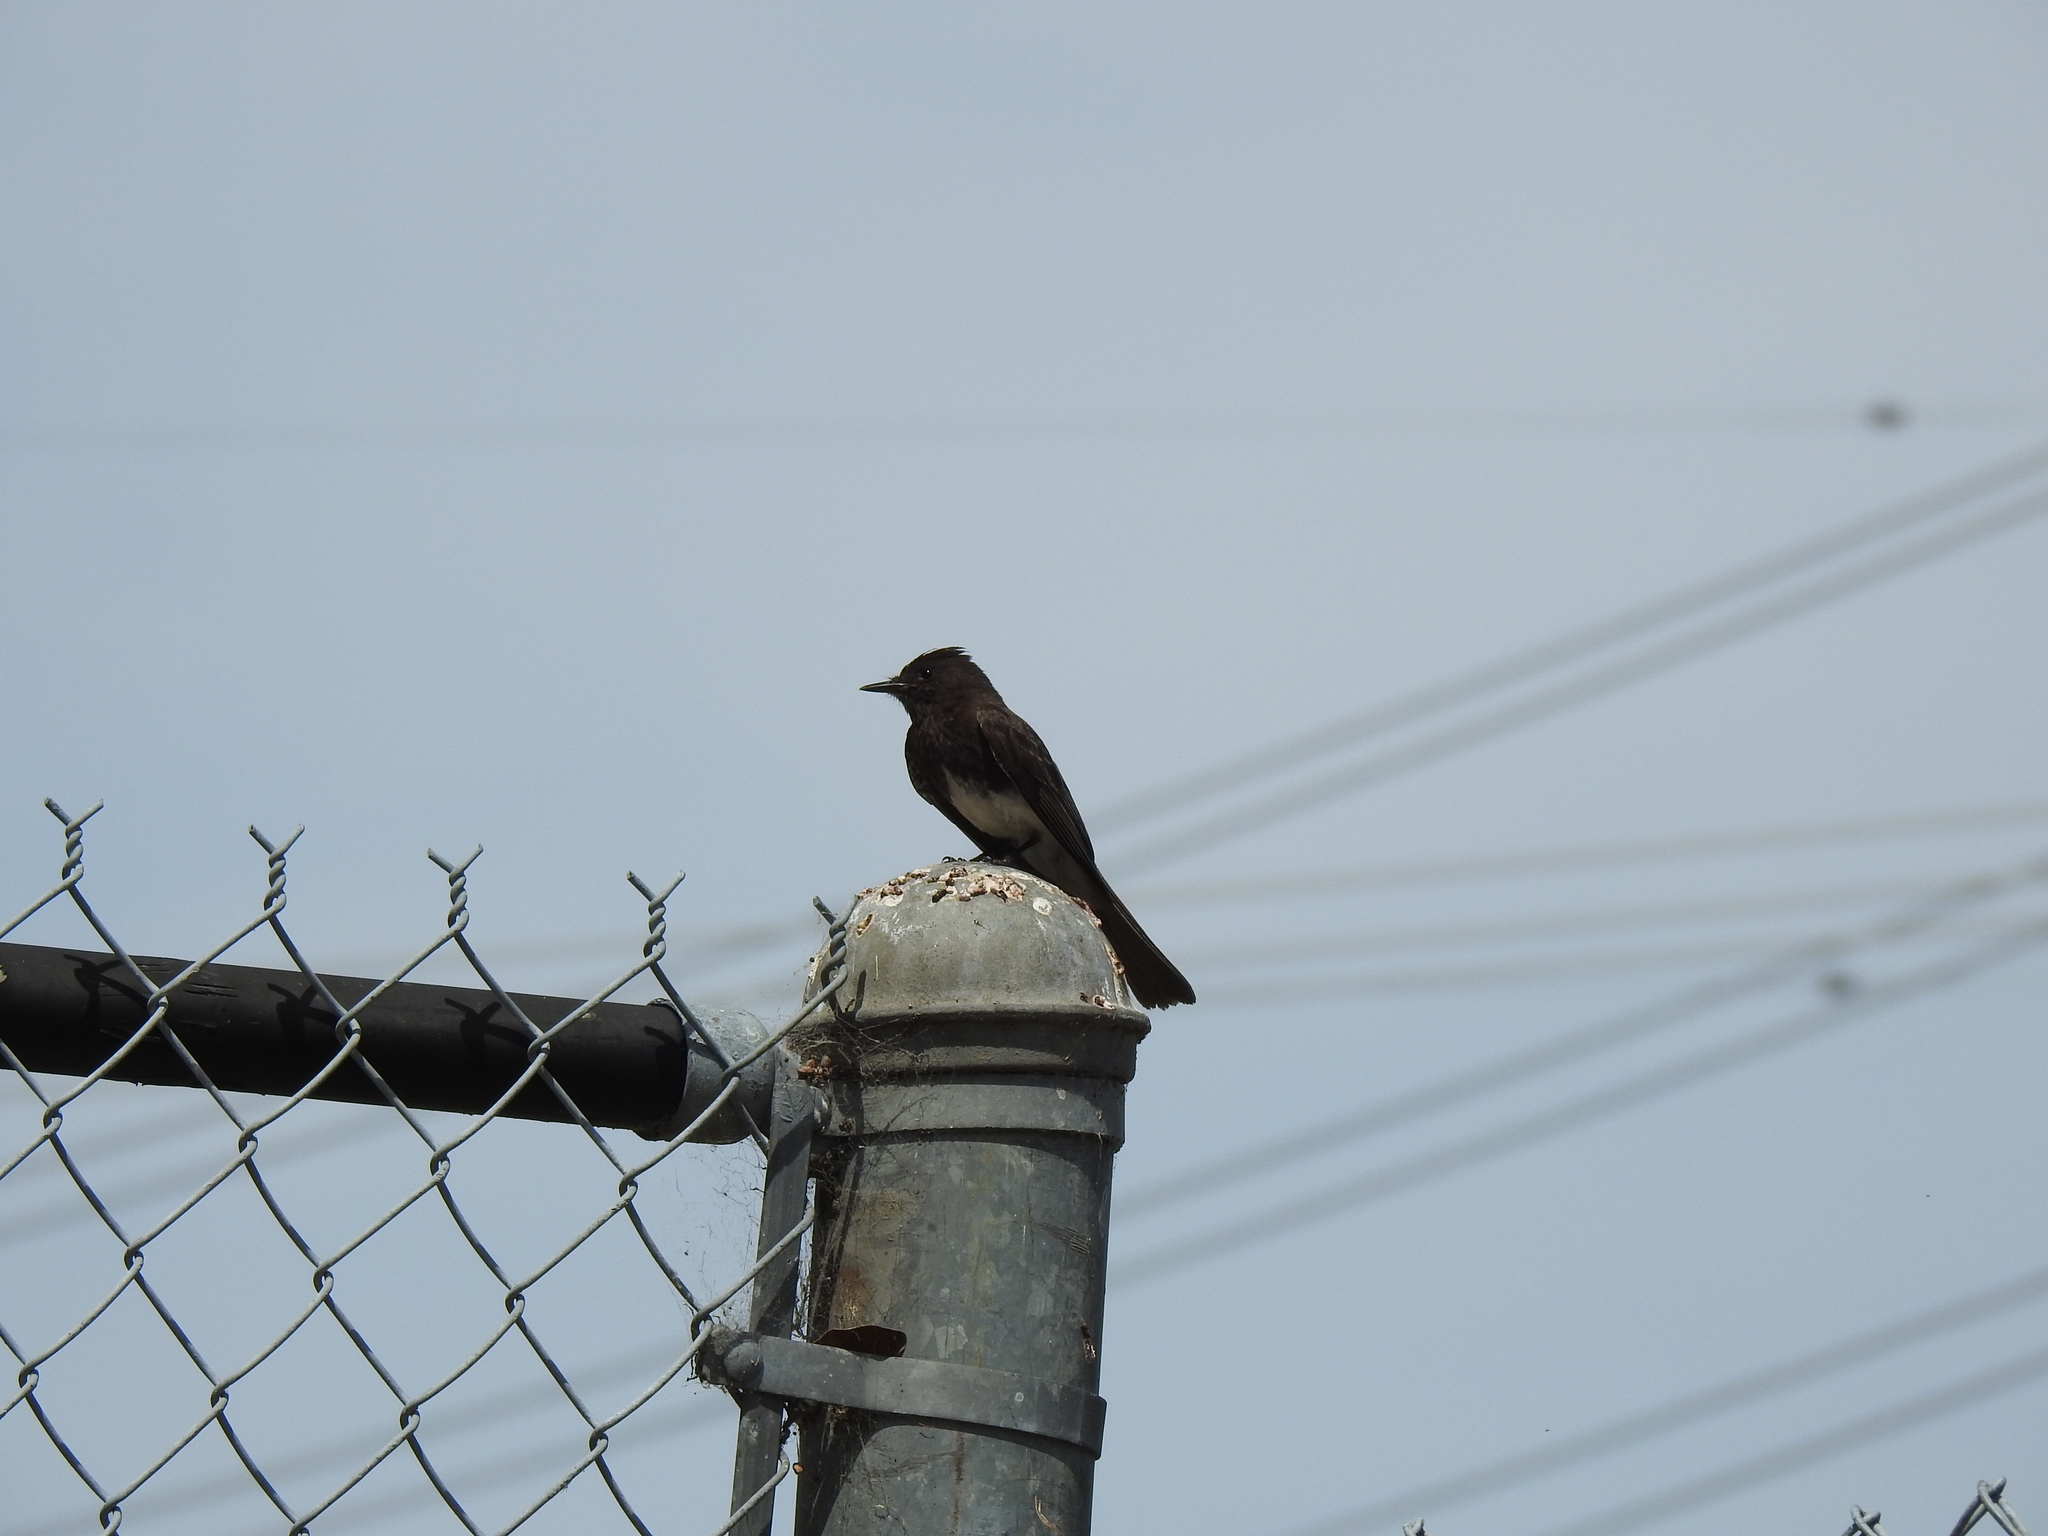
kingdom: Animalia
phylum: Chordata
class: Aves
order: Passeriformes
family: Tyrannidae
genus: Sayornis
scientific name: Sayornis nigricans
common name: Black phoebe
